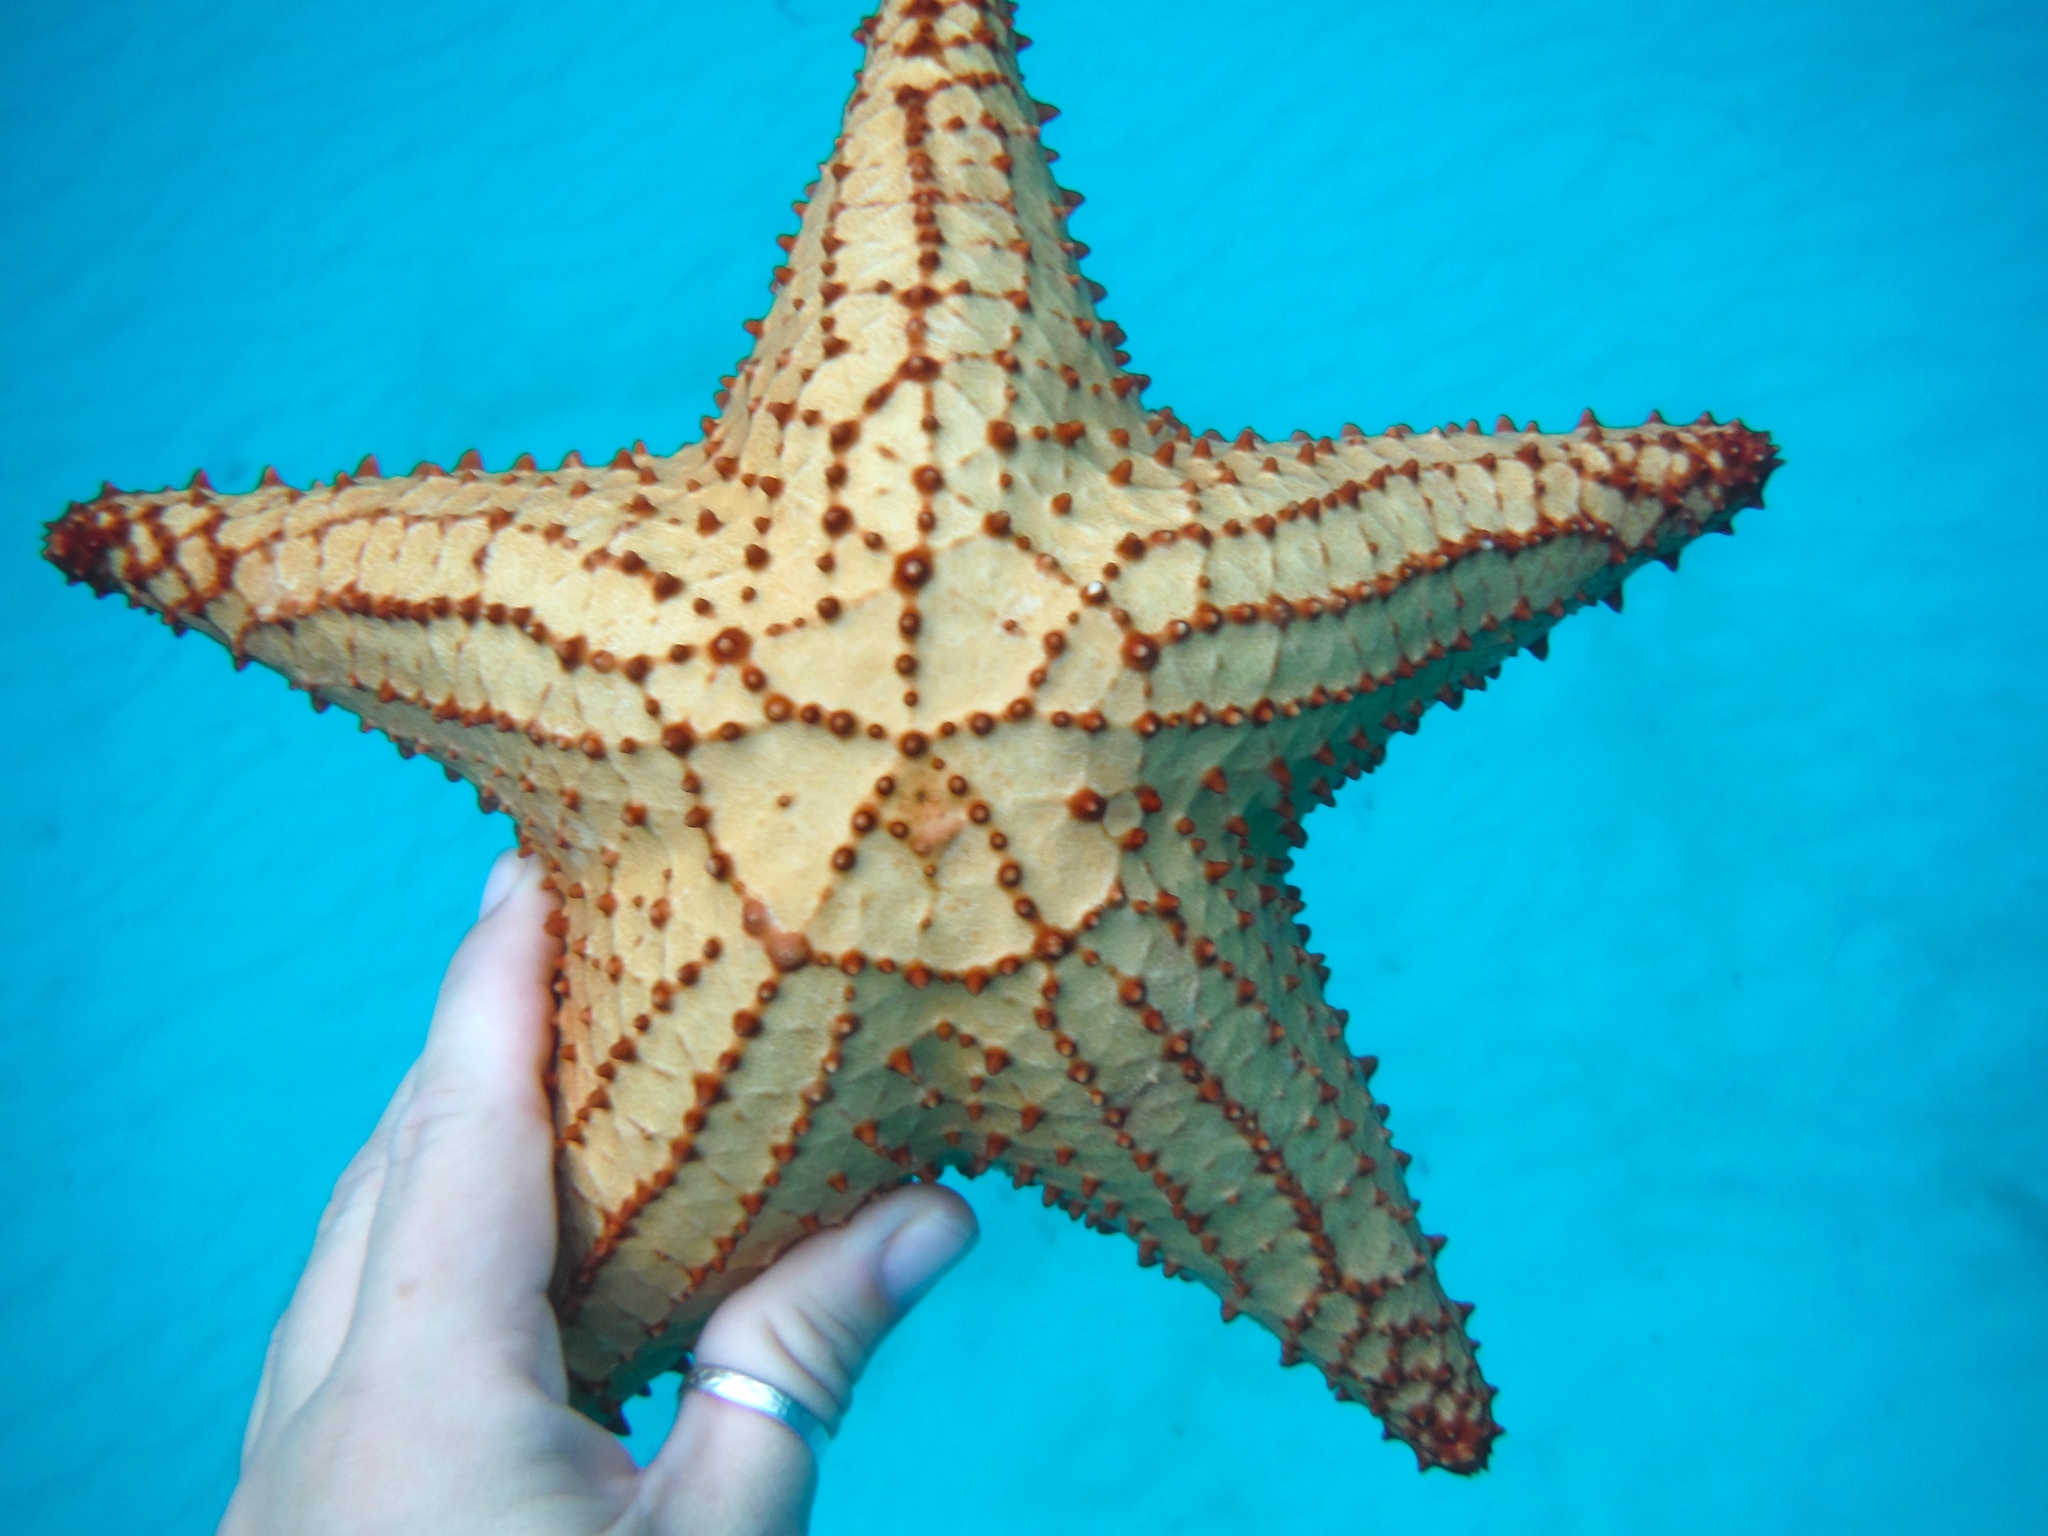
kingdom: Animalia
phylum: Echinodermata
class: Asteroidea
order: Valvatida
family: Oreasteridae
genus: Oreaster
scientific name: Oreaster reticulatus
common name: Cushion sea star
